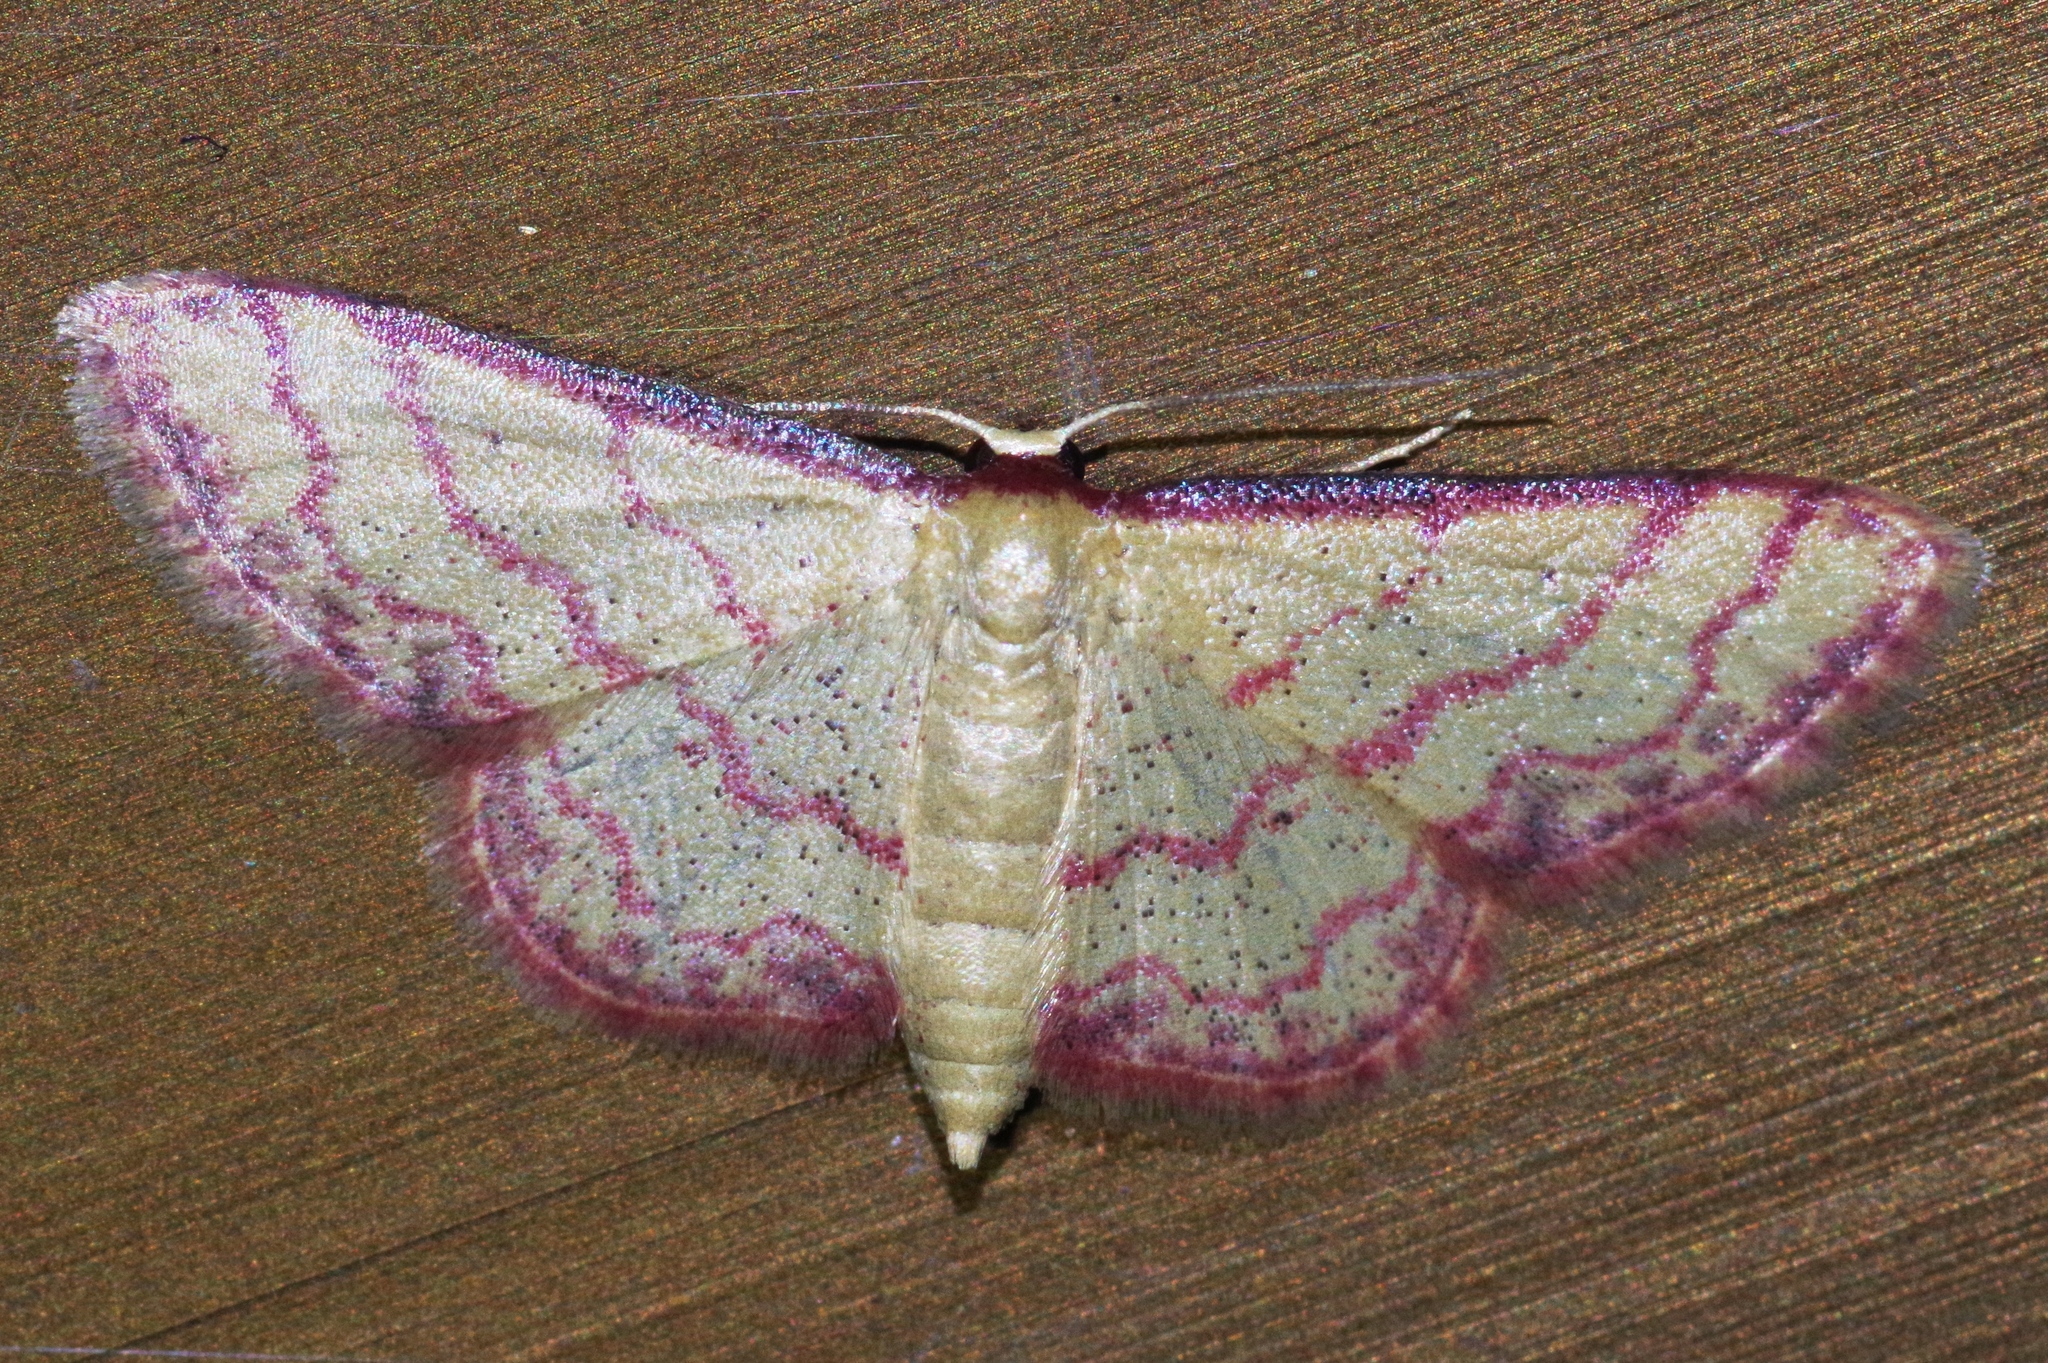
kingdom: Animalia
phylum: Arthropoda
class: Insecta
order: Lepidoptera
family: Geometridae
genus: Idaea
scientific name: Idaea okinawensis
